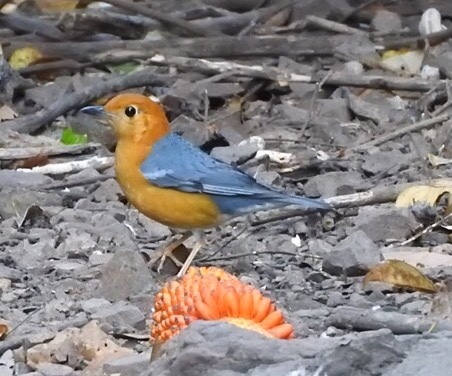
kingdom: Animalia
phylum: Chordata
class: Aves
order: Passeriformes
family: Turdidae
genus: Geokichla
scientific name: Geokichla citrina
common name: Orange-headed thrush
